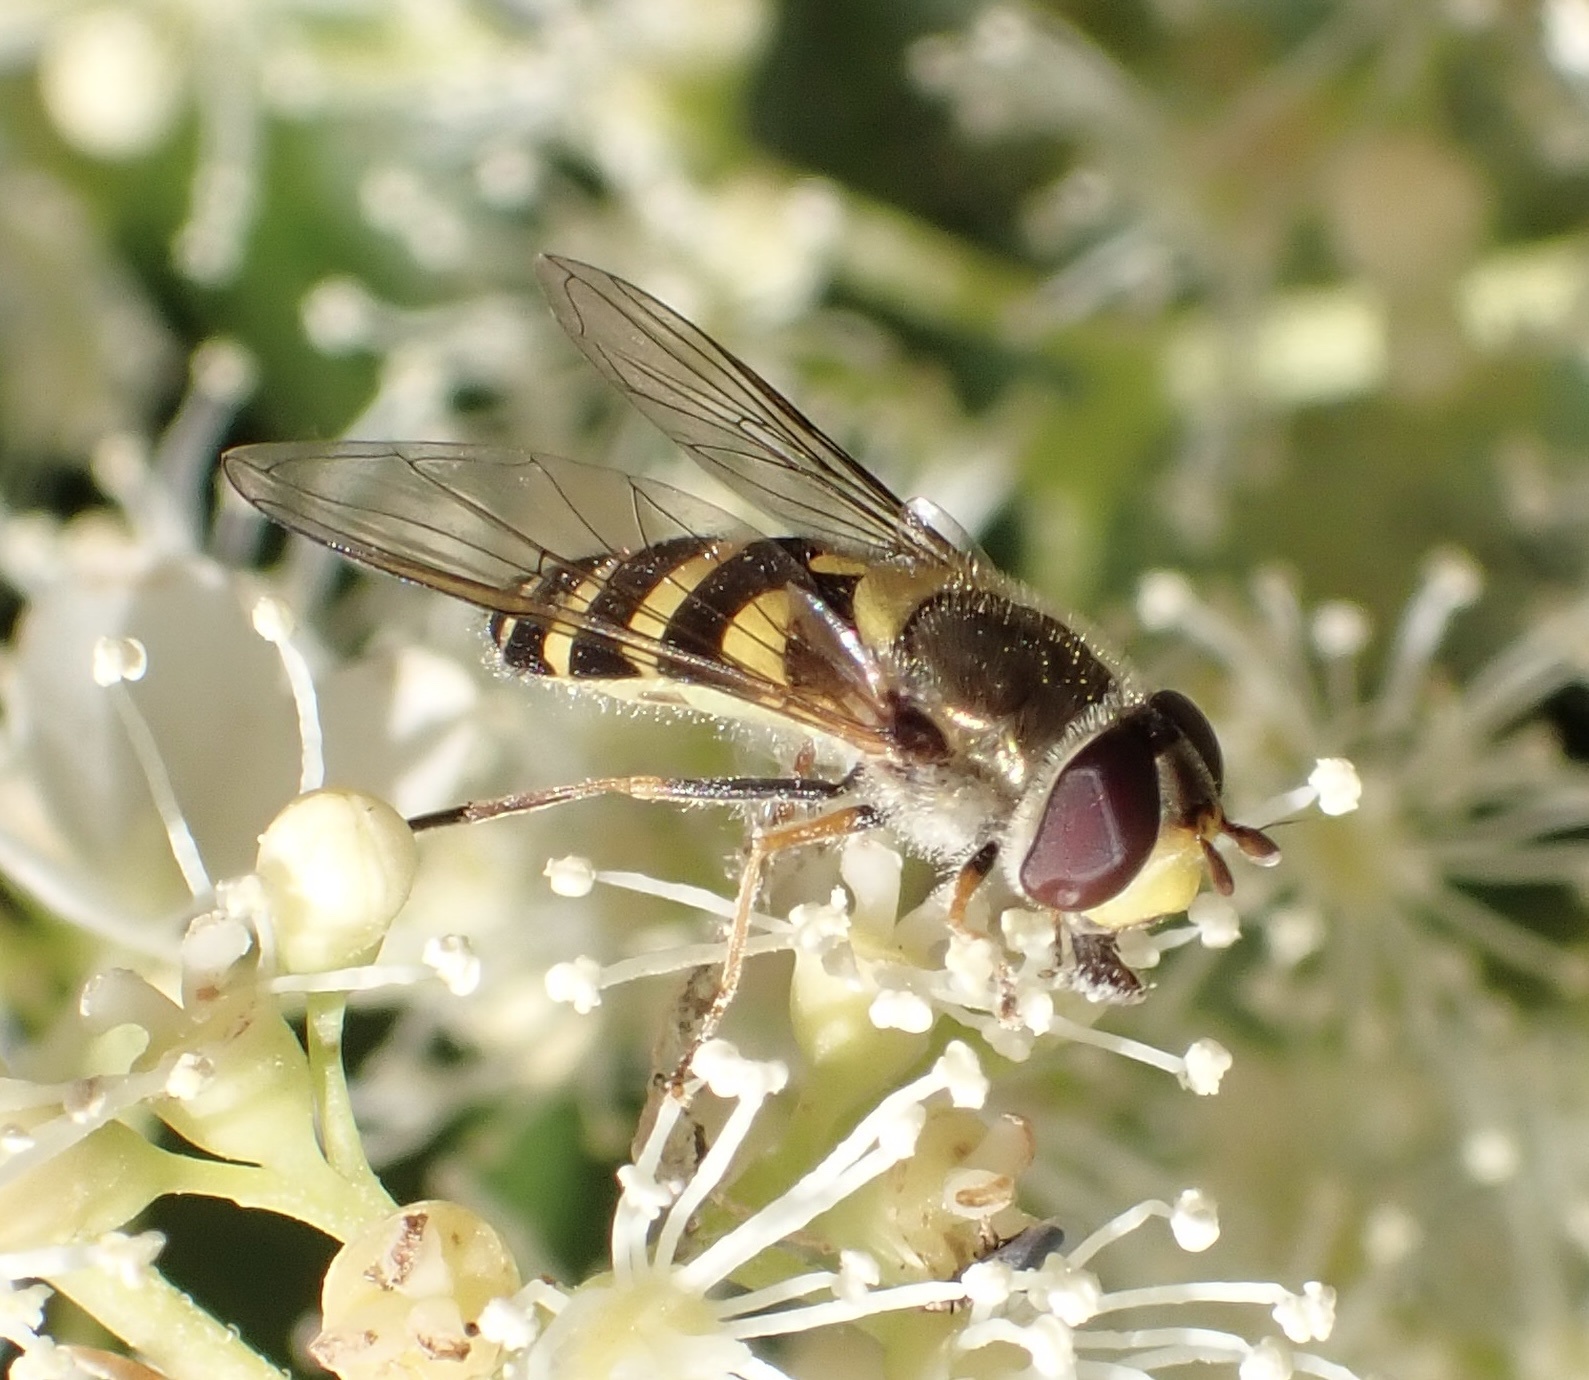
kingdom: Animalia
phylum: Arthropoda
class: Insecta
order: Diptera
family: Syrphidae
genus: Syrphus
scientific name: Syrphus vitripennis
